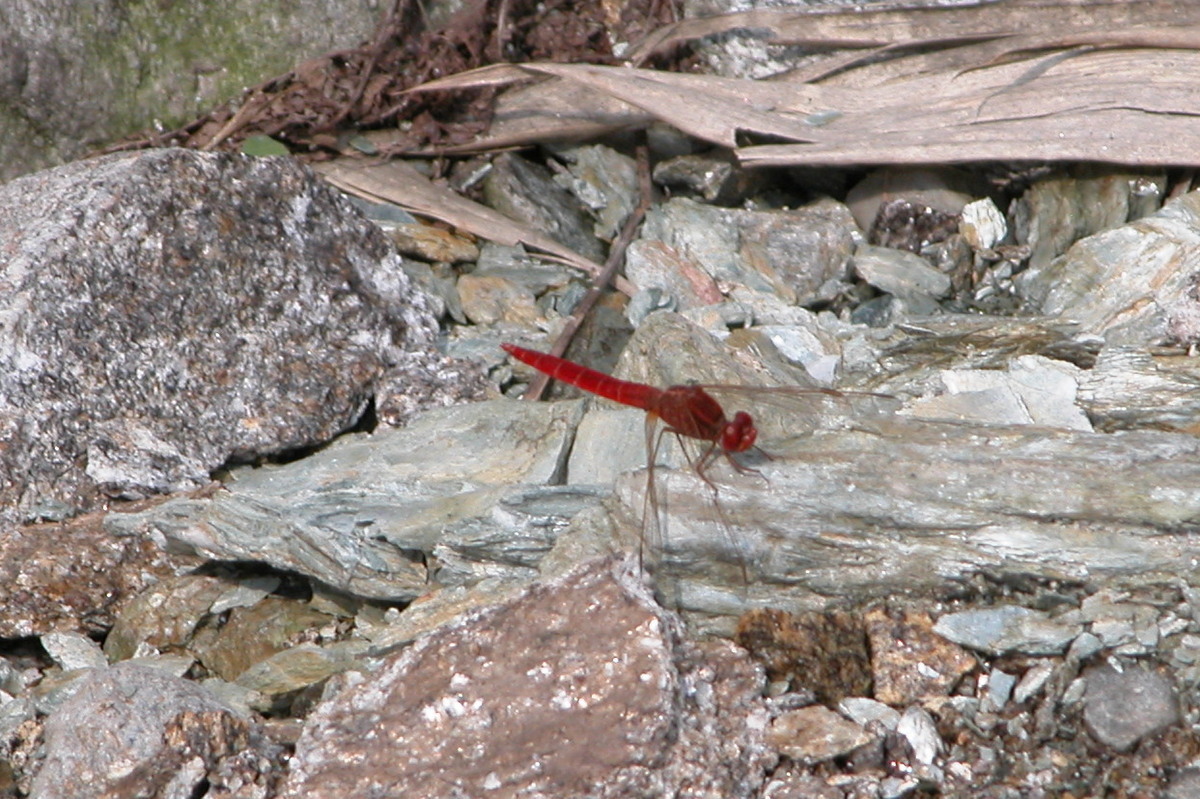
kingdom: Animalia
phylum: Arthropoda
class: Insecta
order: Odonata
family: Libellulidae
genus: Crocothemis
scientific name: Crocothemis servilia
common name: Scarlet skimmer
